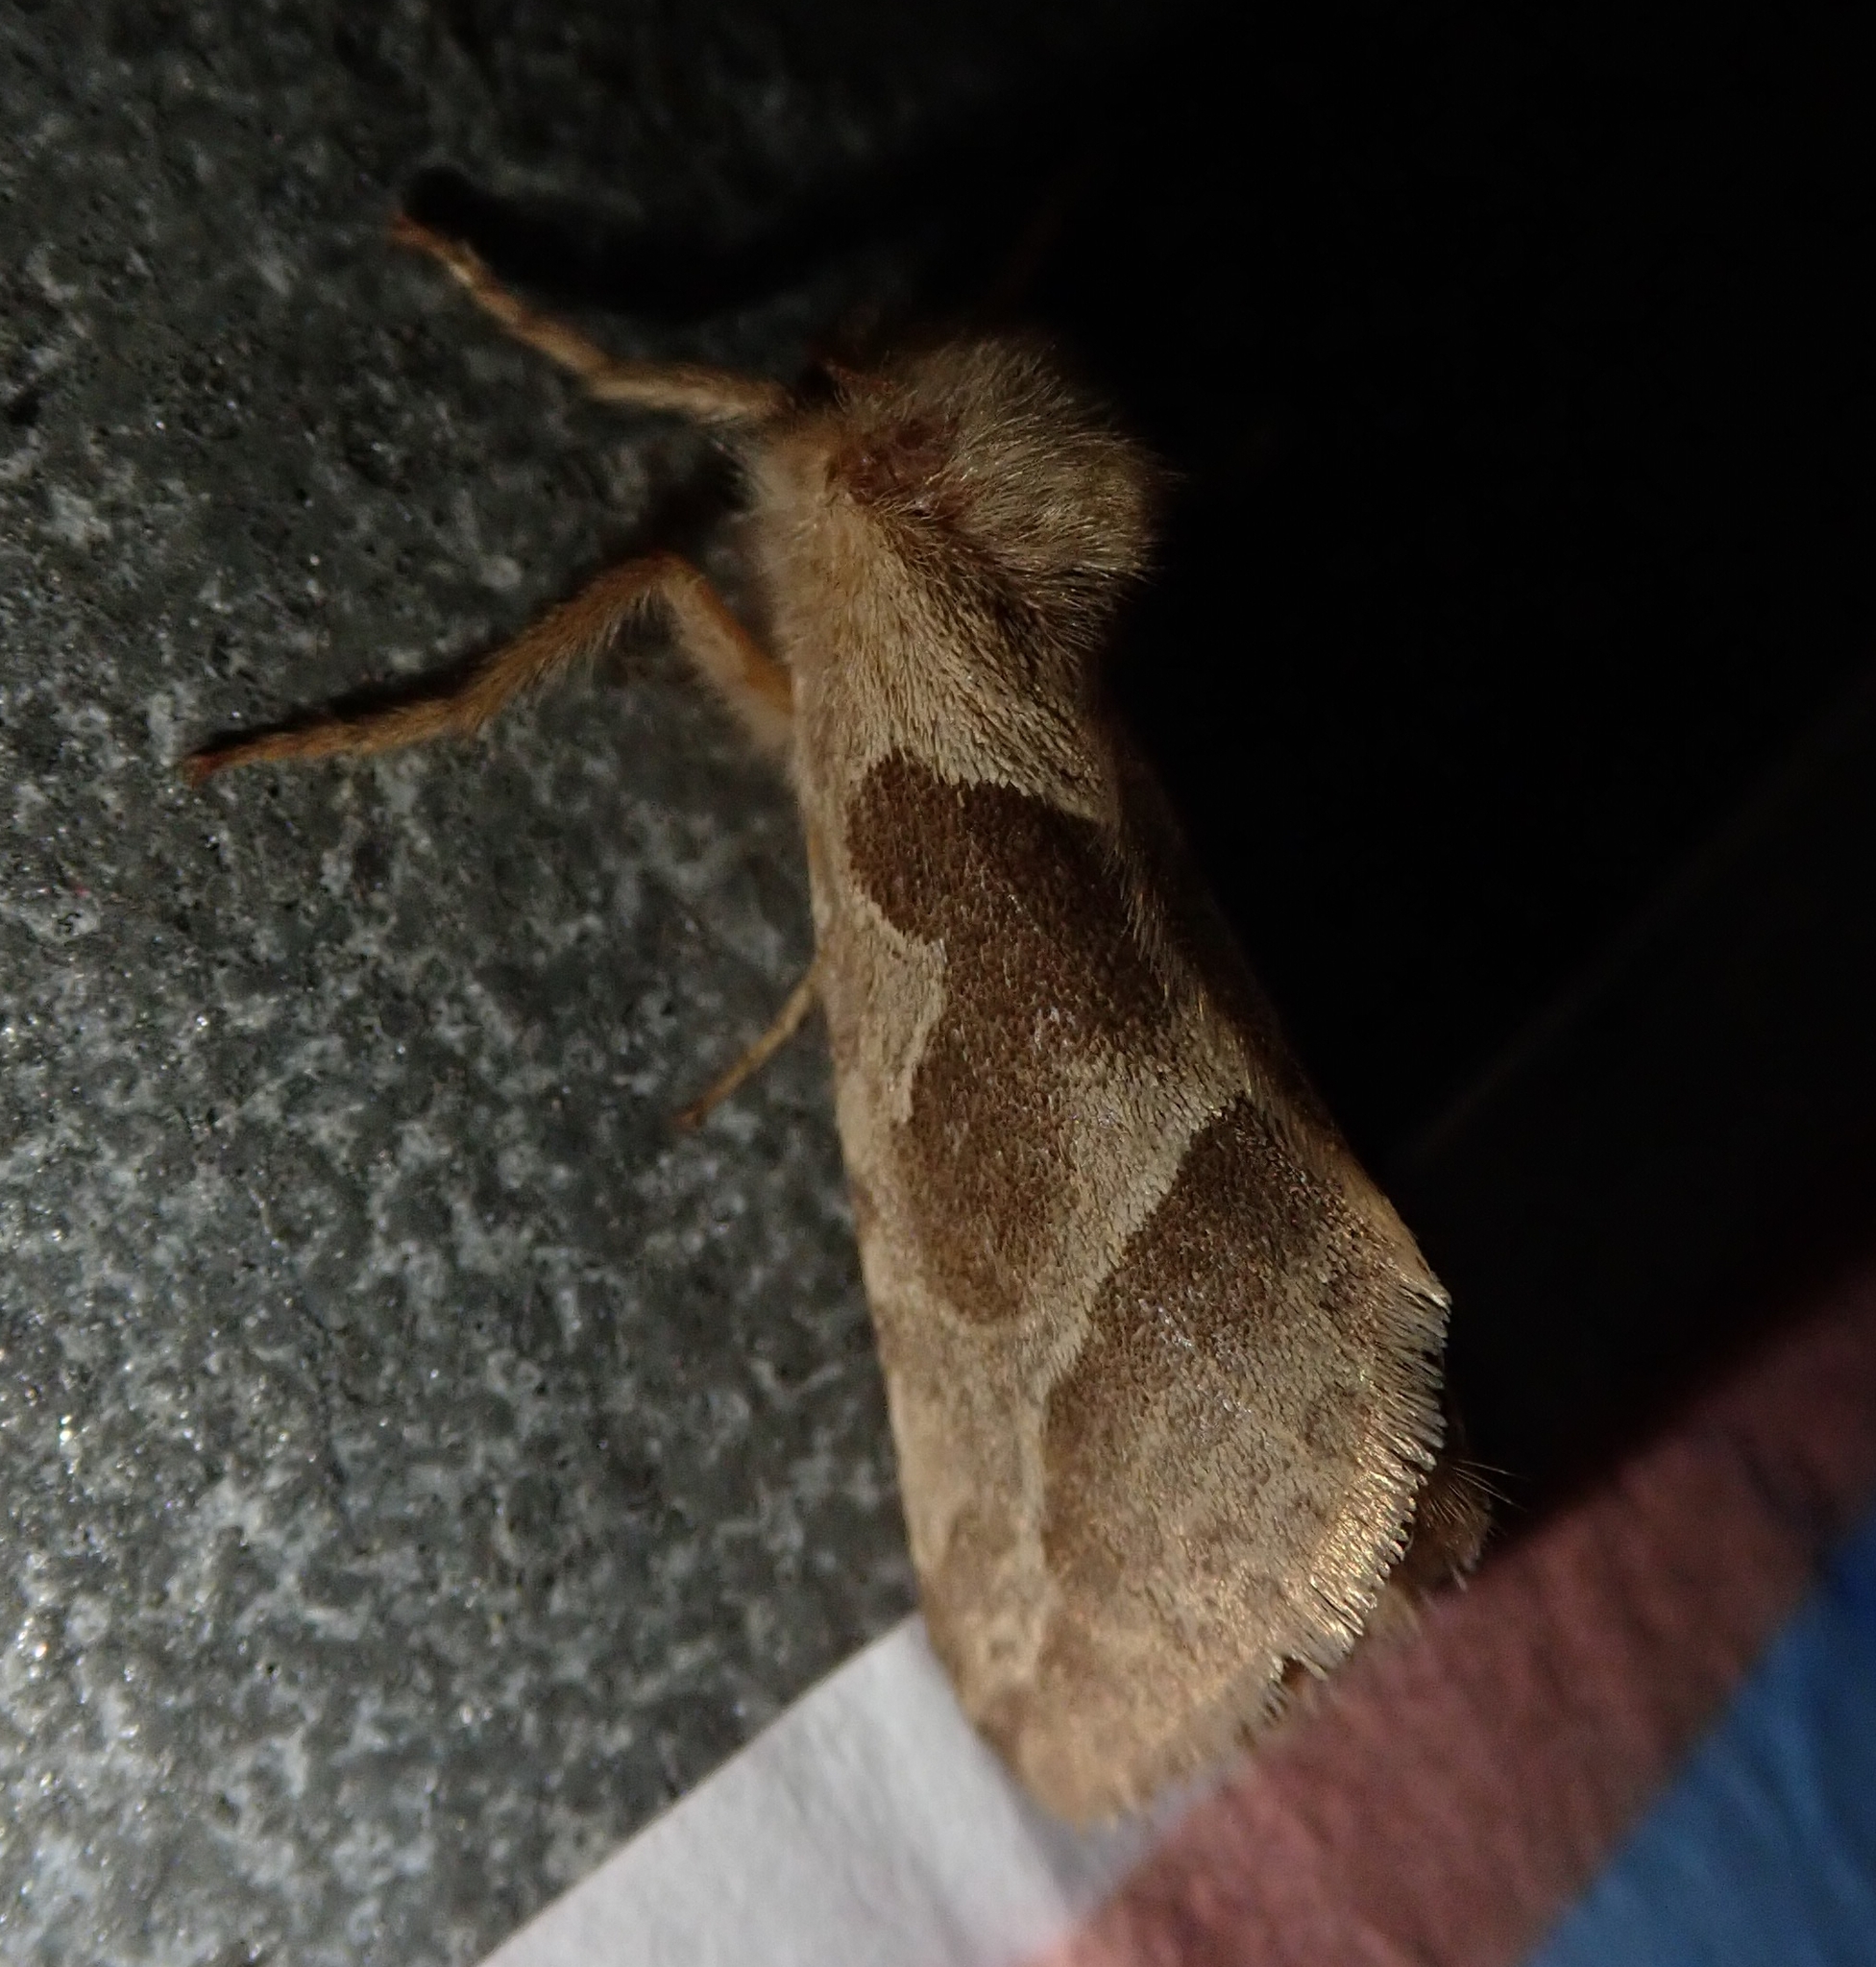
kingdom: Animalia
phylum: Arthropoda
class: Insecta
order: Lepidoptera
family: Hepialidae
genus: Triodia
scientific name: Triodia sylvina
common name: Orange swift
